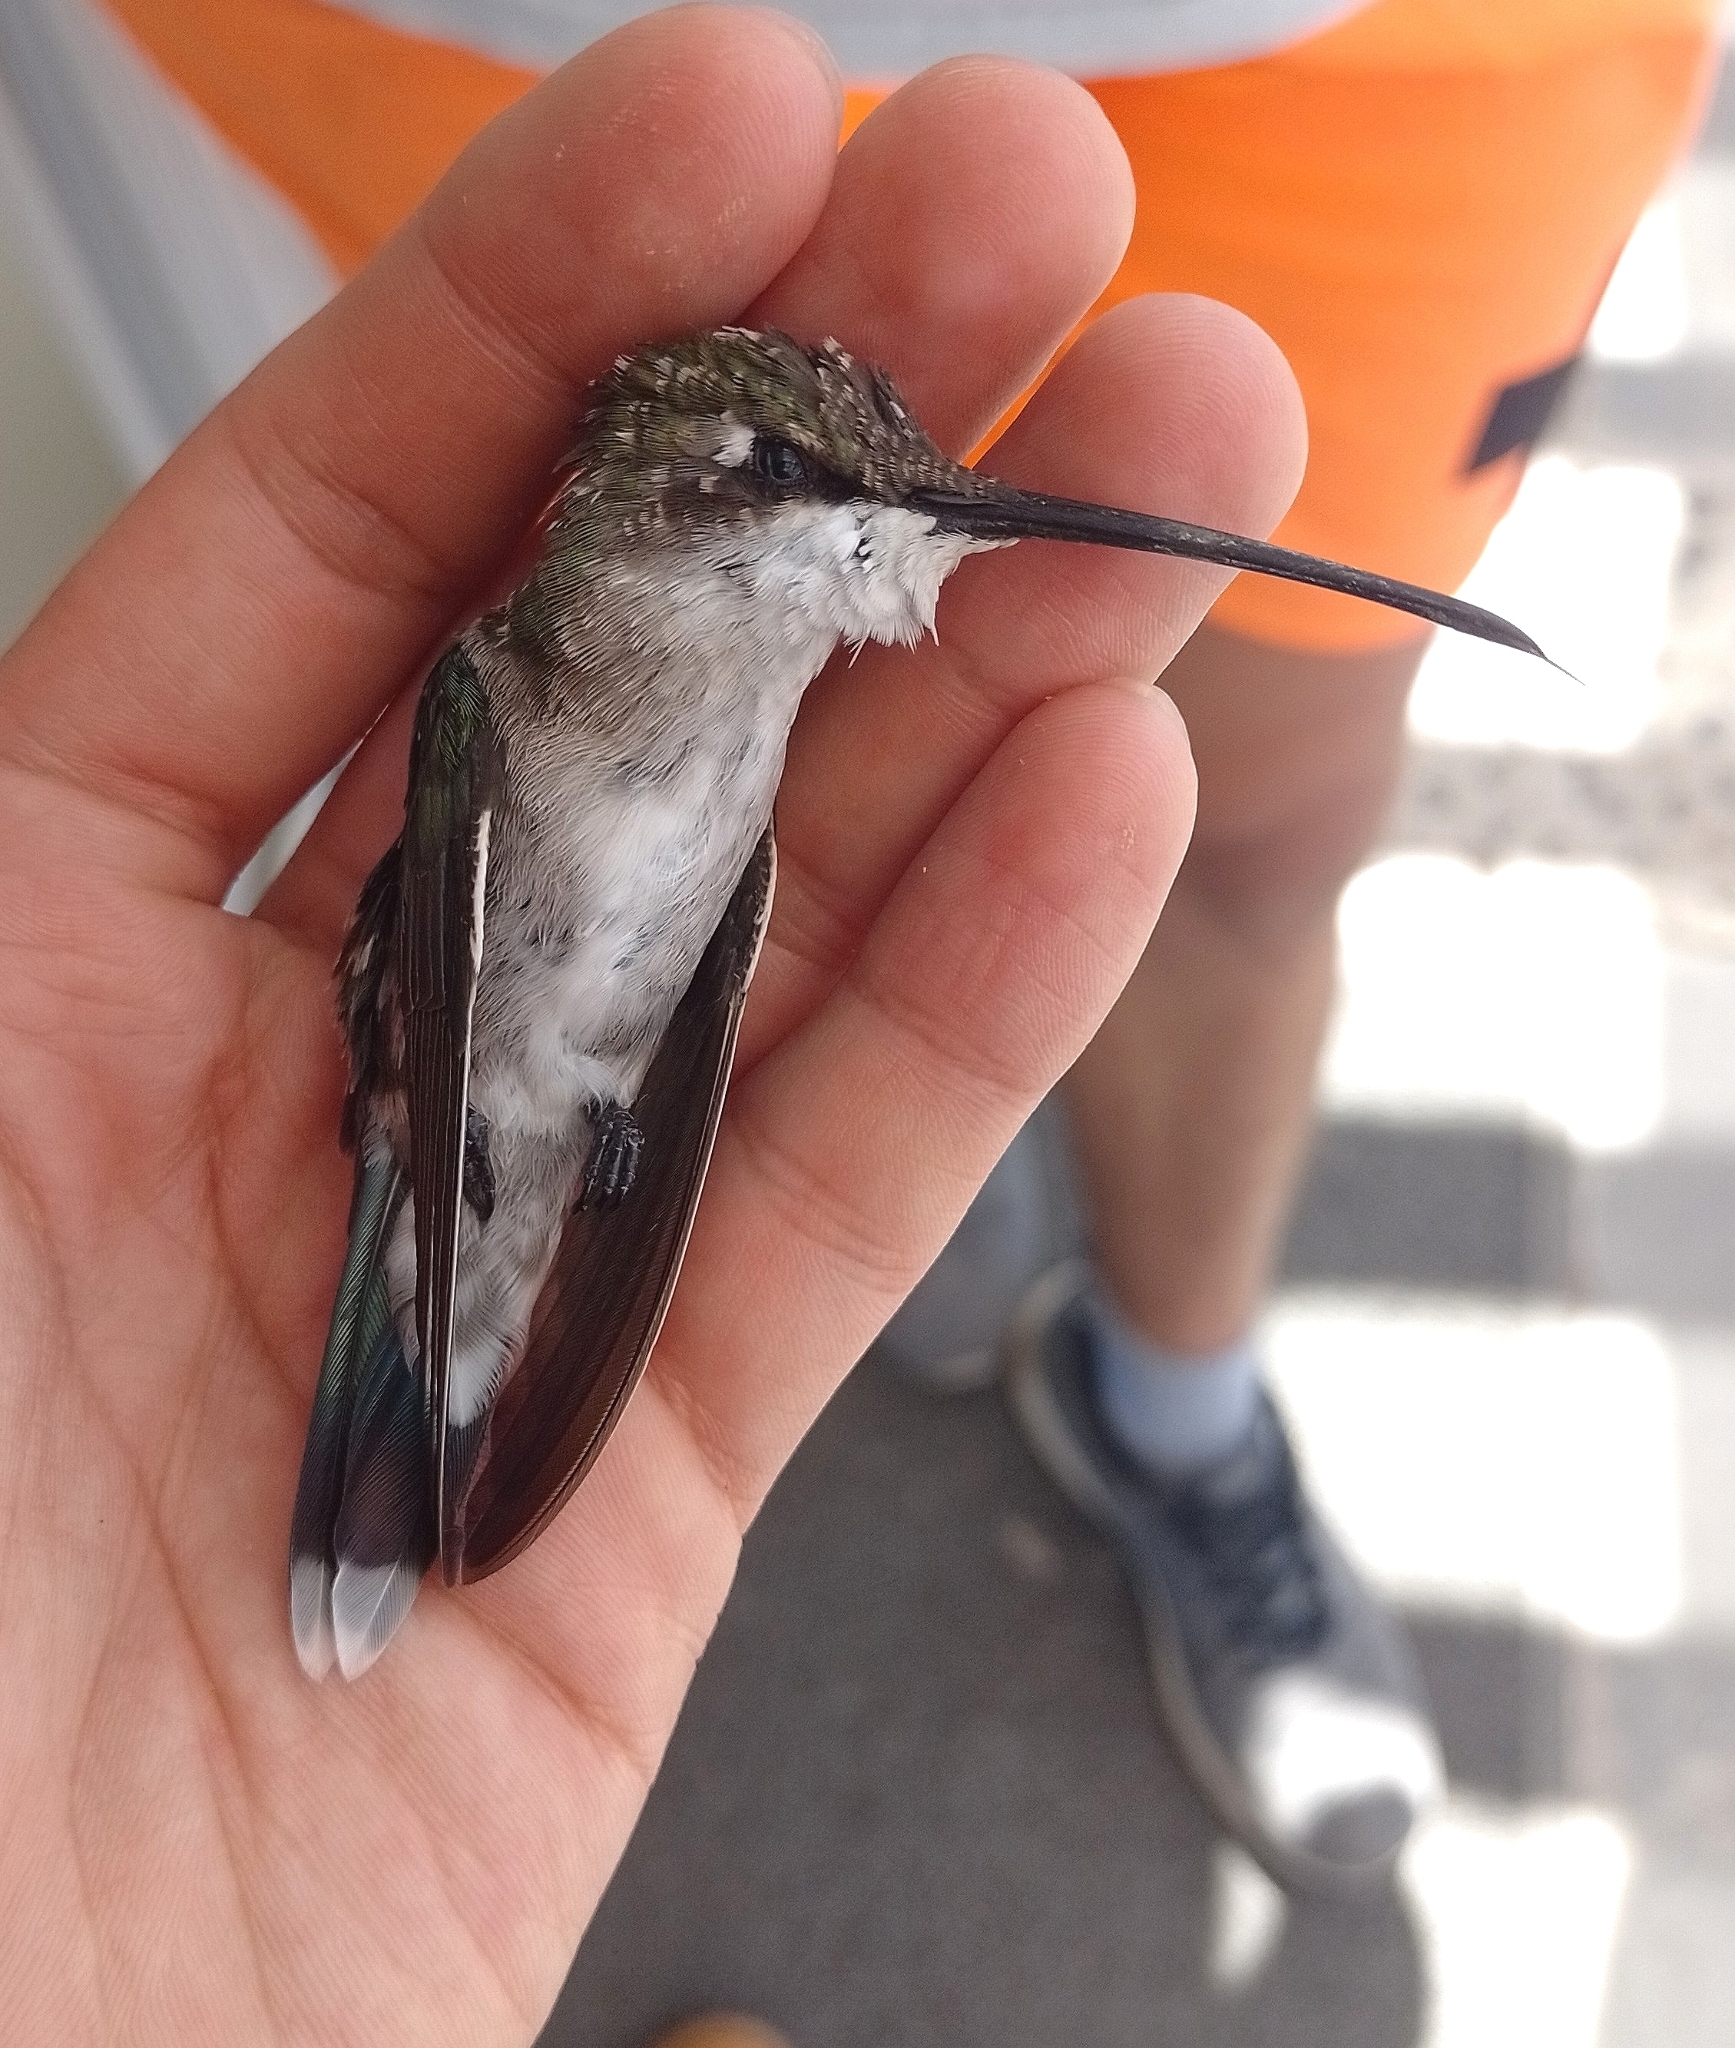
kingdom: Animalia
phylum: Chordata
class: Aves
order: Apodiformes
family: Trochilidae
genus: Heliomaster
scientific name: Heliomaster furcifer
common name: Blue-tufted starthroat
